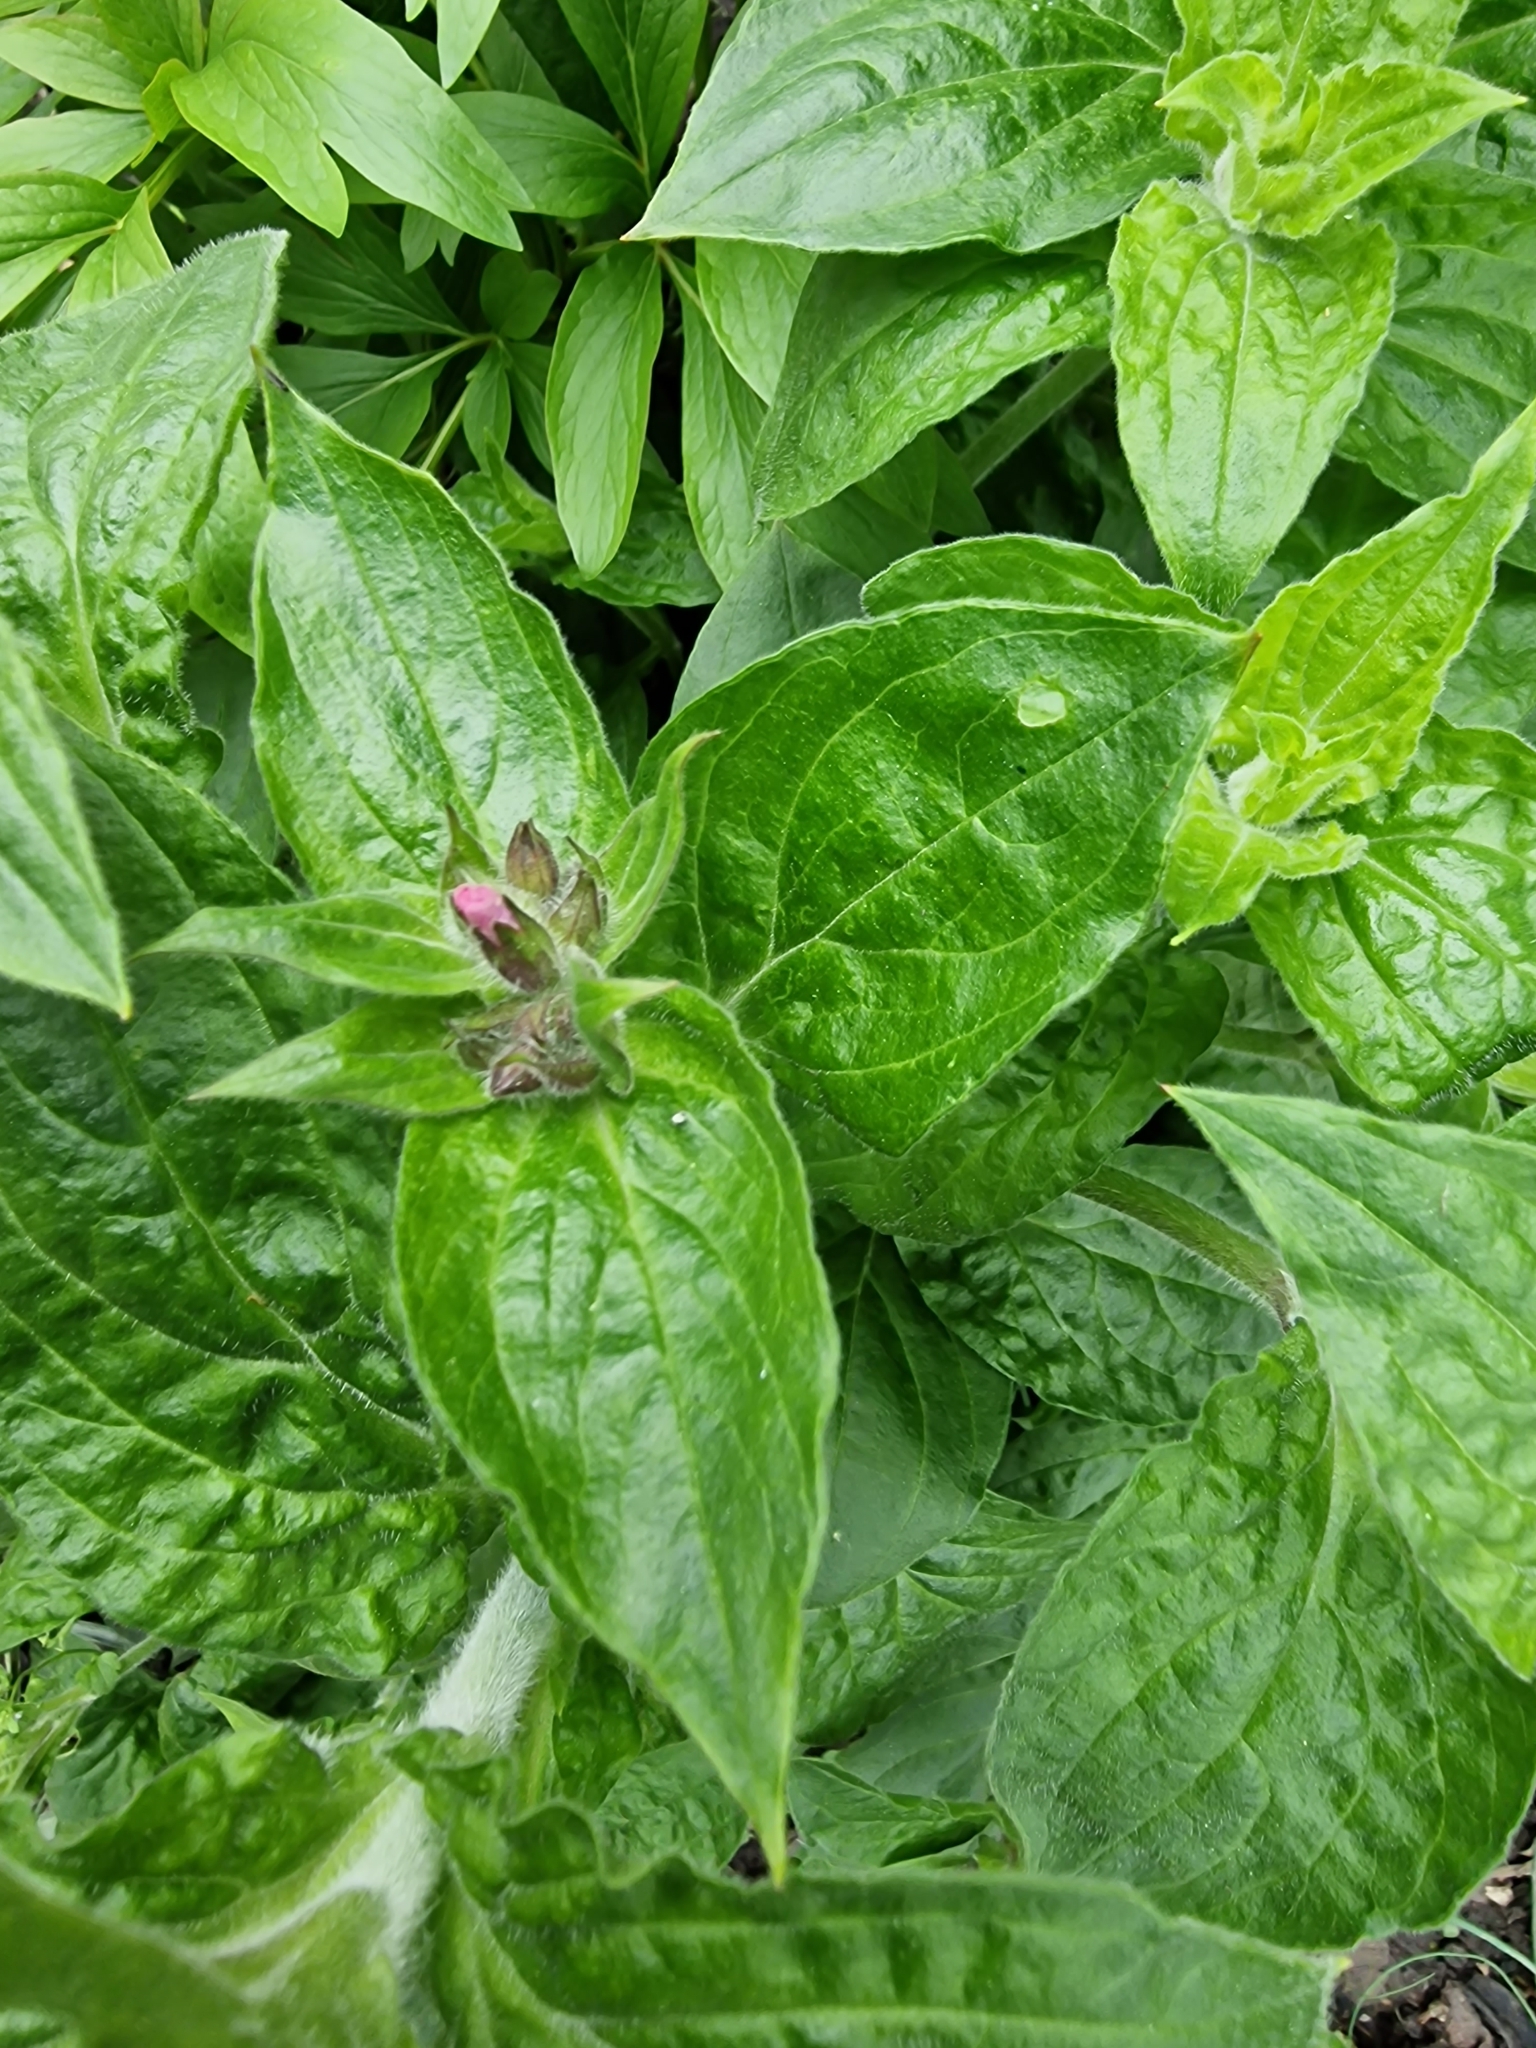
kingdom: Plantae
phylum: Tracheophyta
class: Magnoliopsida
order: Caryophyllales
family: Caryophyllaceae
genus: Silene
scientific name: Silene dioica
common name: Red campion
